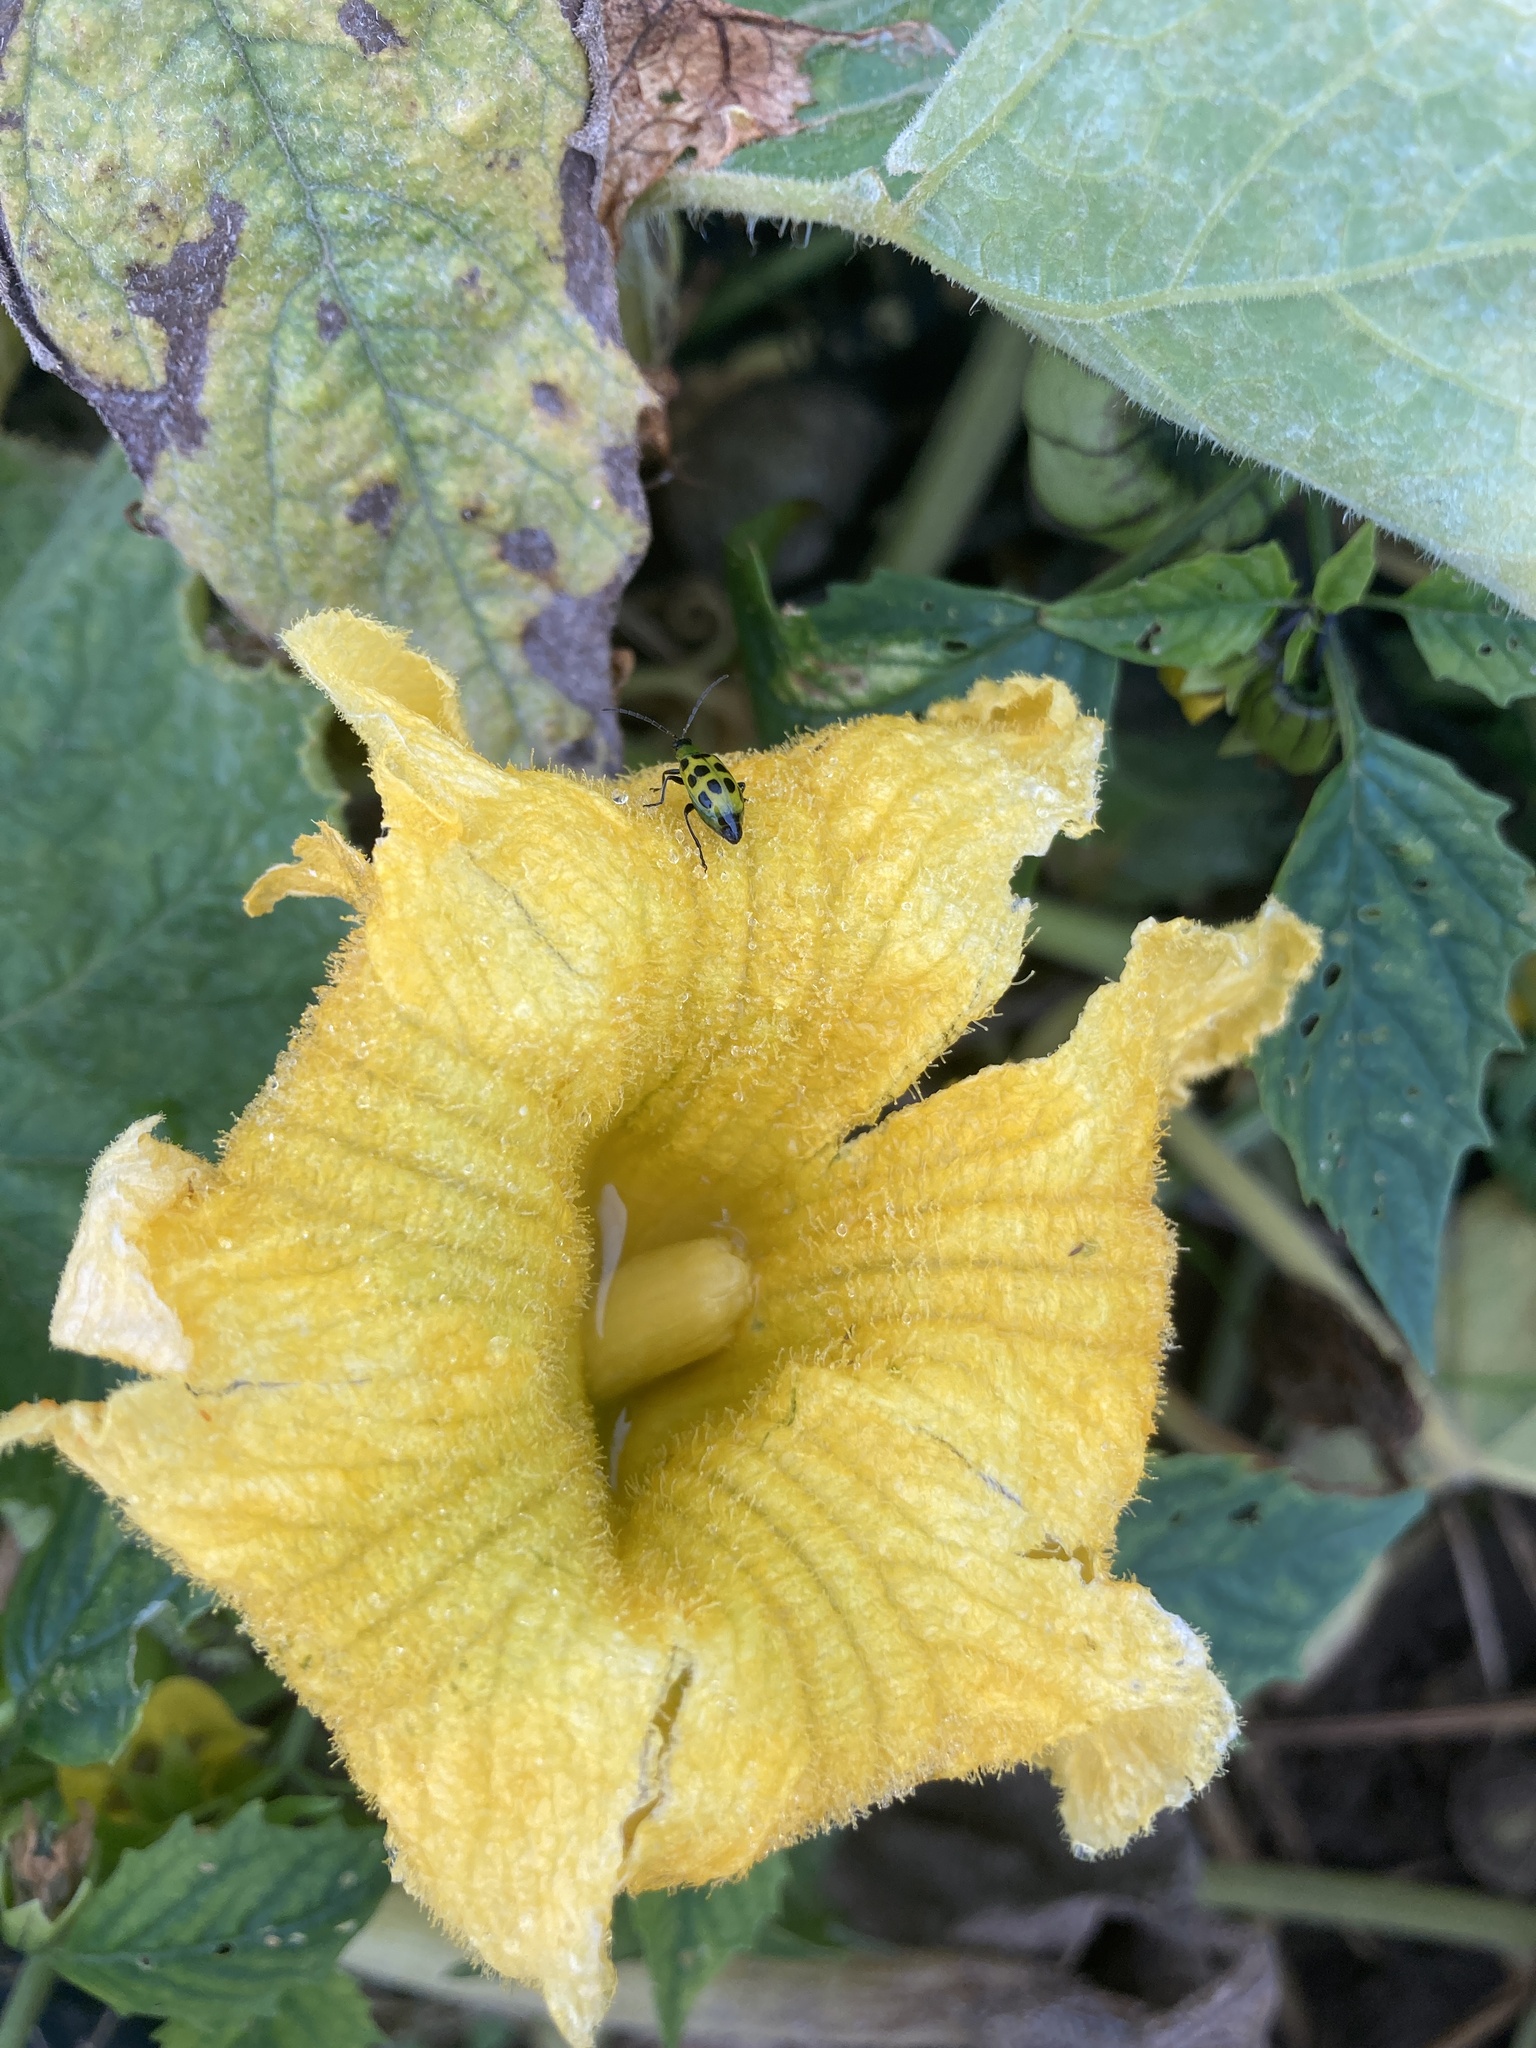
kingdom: Animalia
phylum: Arthropoda
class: Insecta
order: Coleoptera
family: Chrysomelidae
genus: Diabrotica
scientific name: Diabrotica undecimpunctata
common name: Spotted cucumber beetle
